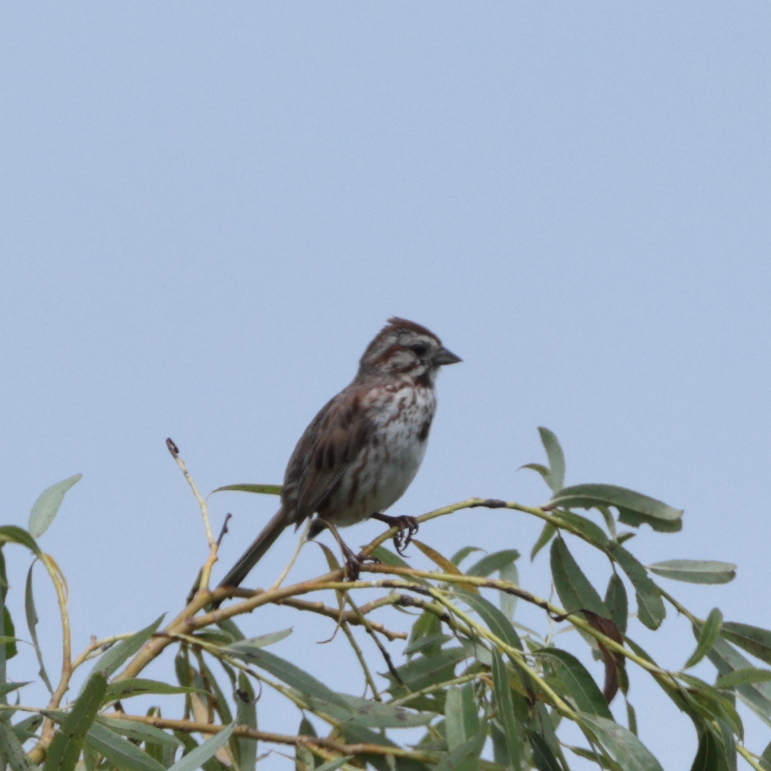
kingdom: Animalia
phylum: Chordata
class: Aves
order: Passeriformes
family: Passerellidae
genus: Melospiza
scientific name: Melospiza melodia
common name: Song sparrow
